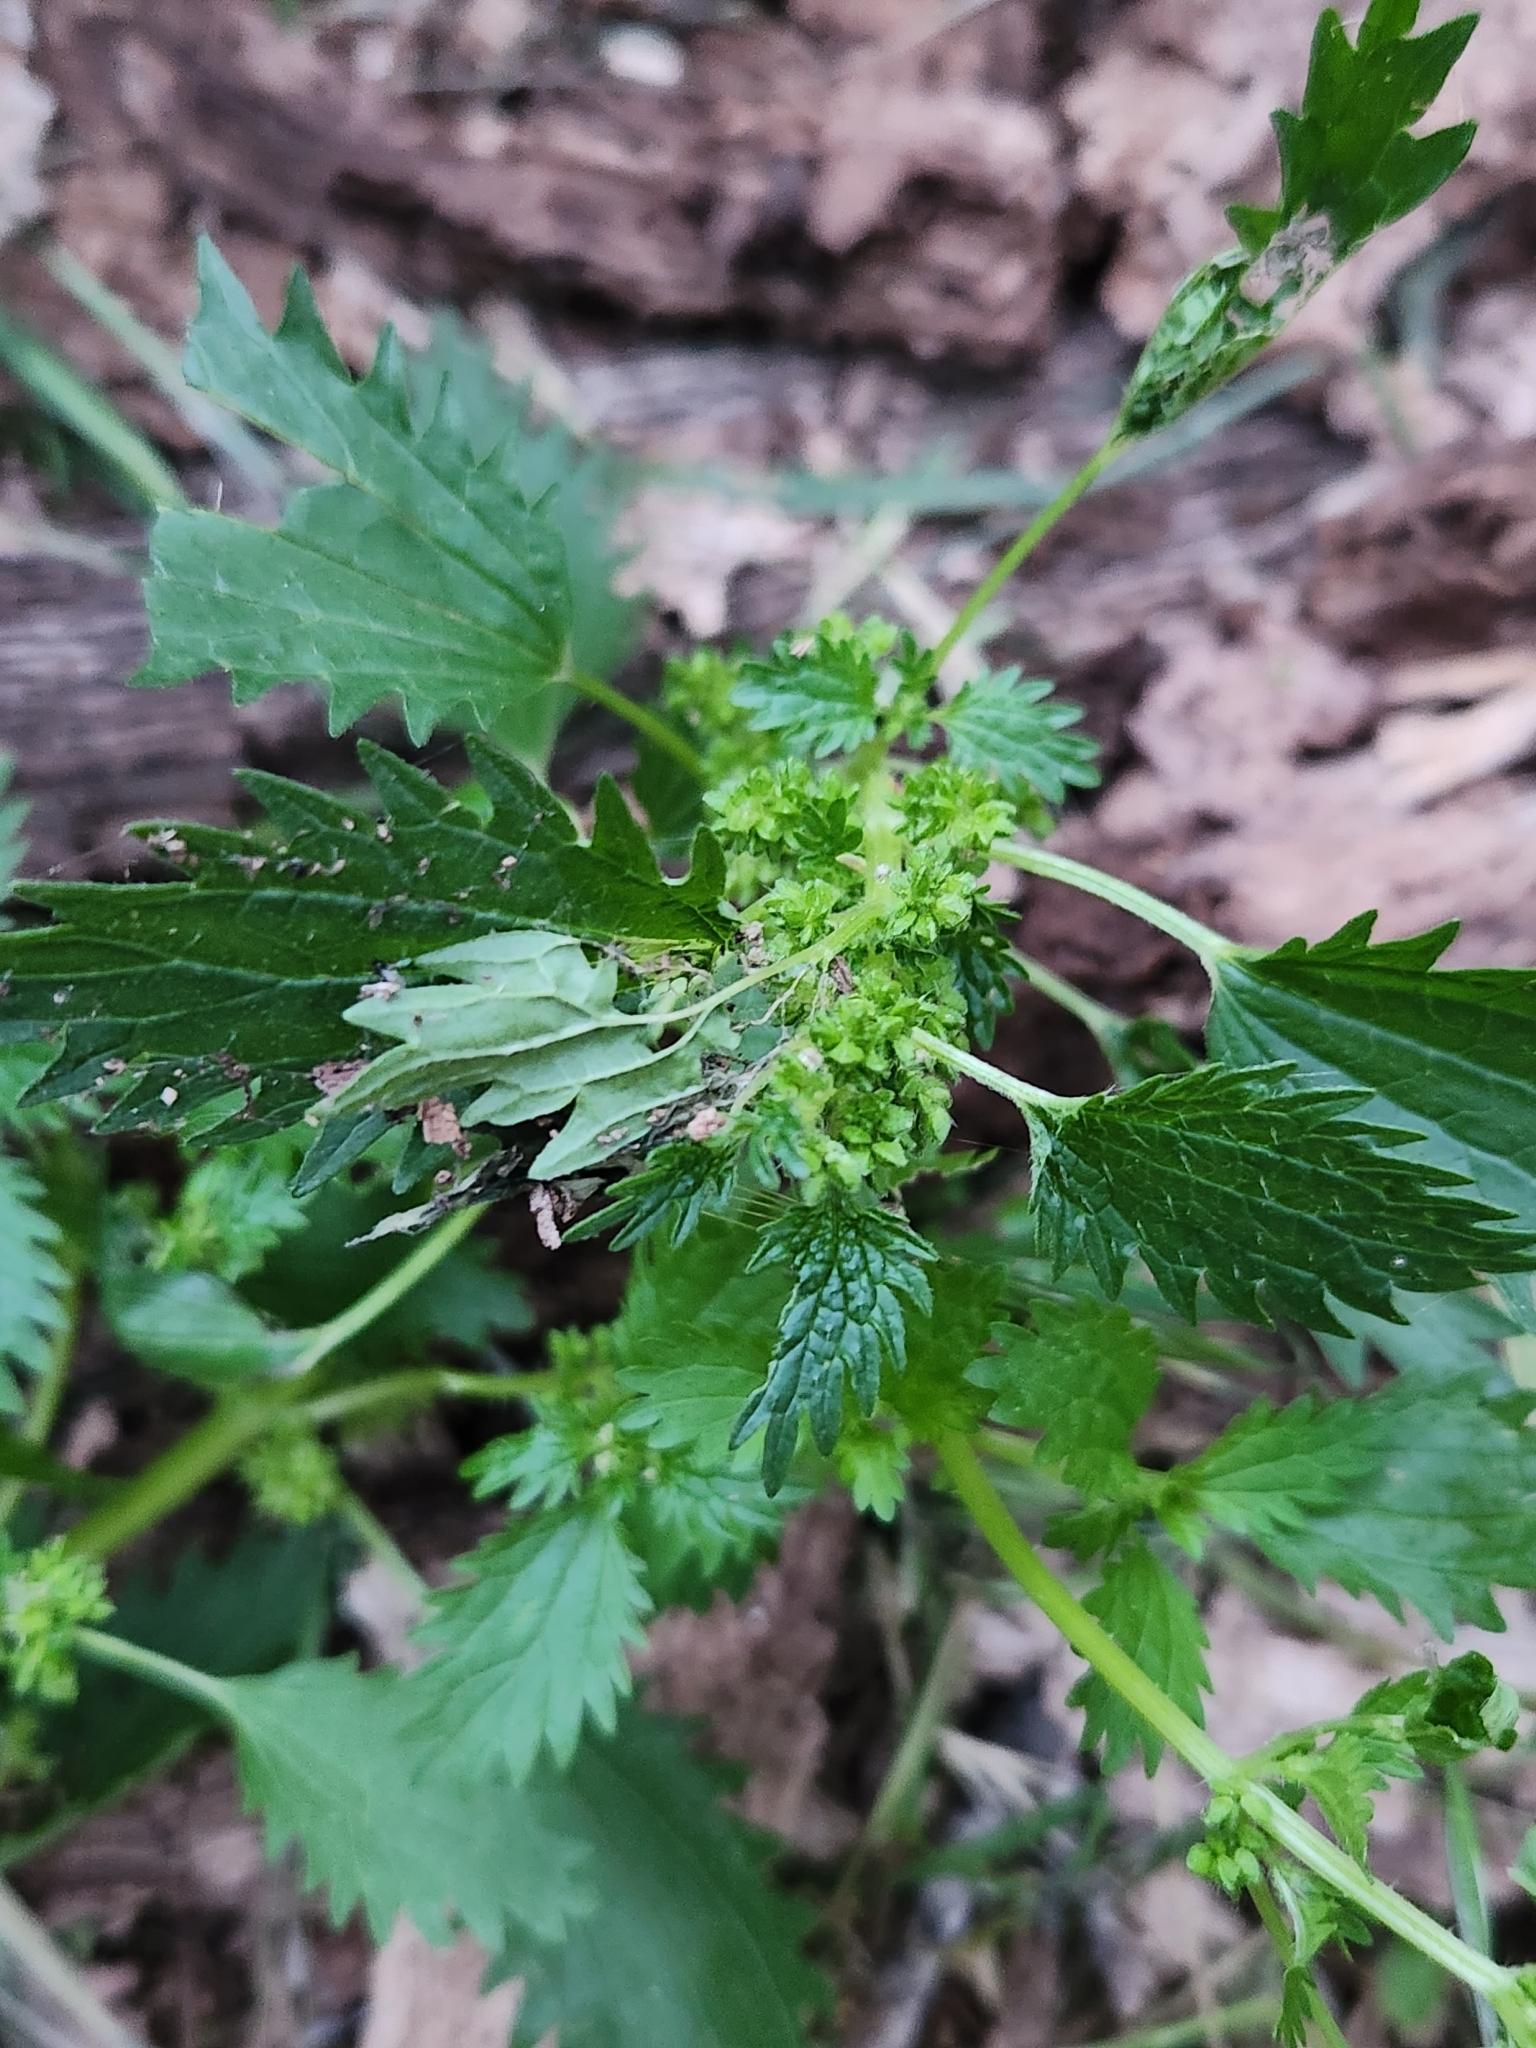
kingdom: Plantae
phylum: Tracheophyta
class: Magnoliopsida
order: Rosales
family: Urticaceae
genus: Urtica
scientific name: Urtica urens
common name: Dwarf nettle
